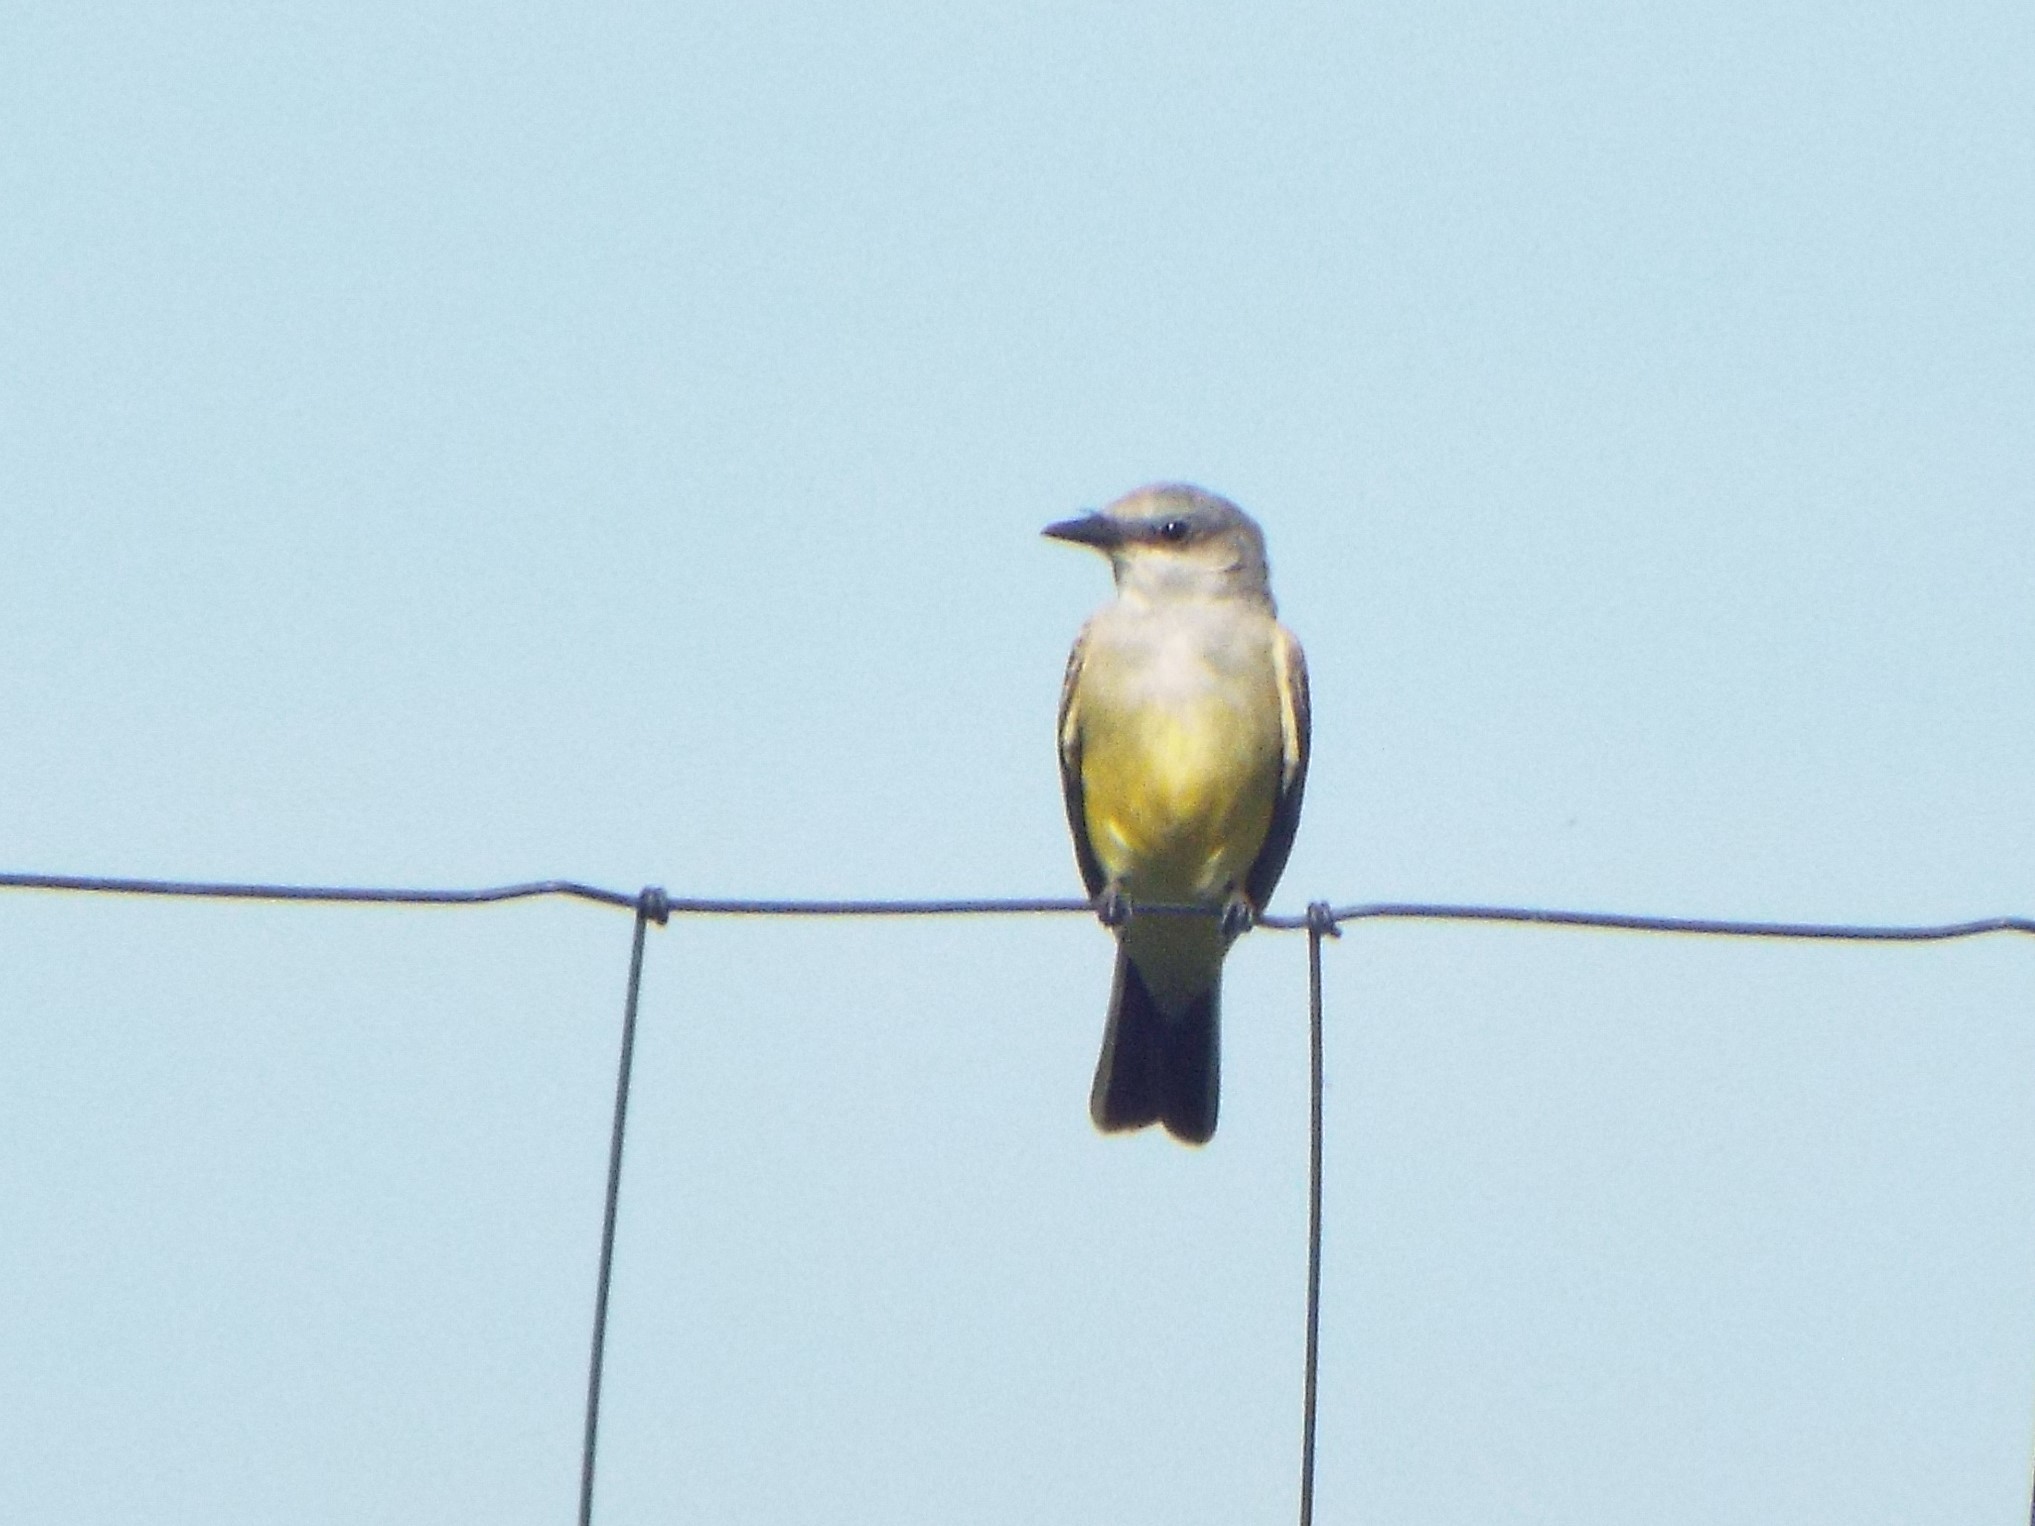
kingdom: Animalia
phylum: Chordata
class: Aves
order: Passeriformes
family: Tyrannidae
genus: Tyrannus
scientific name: Tyrannus verticalis
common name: Western kingbird
